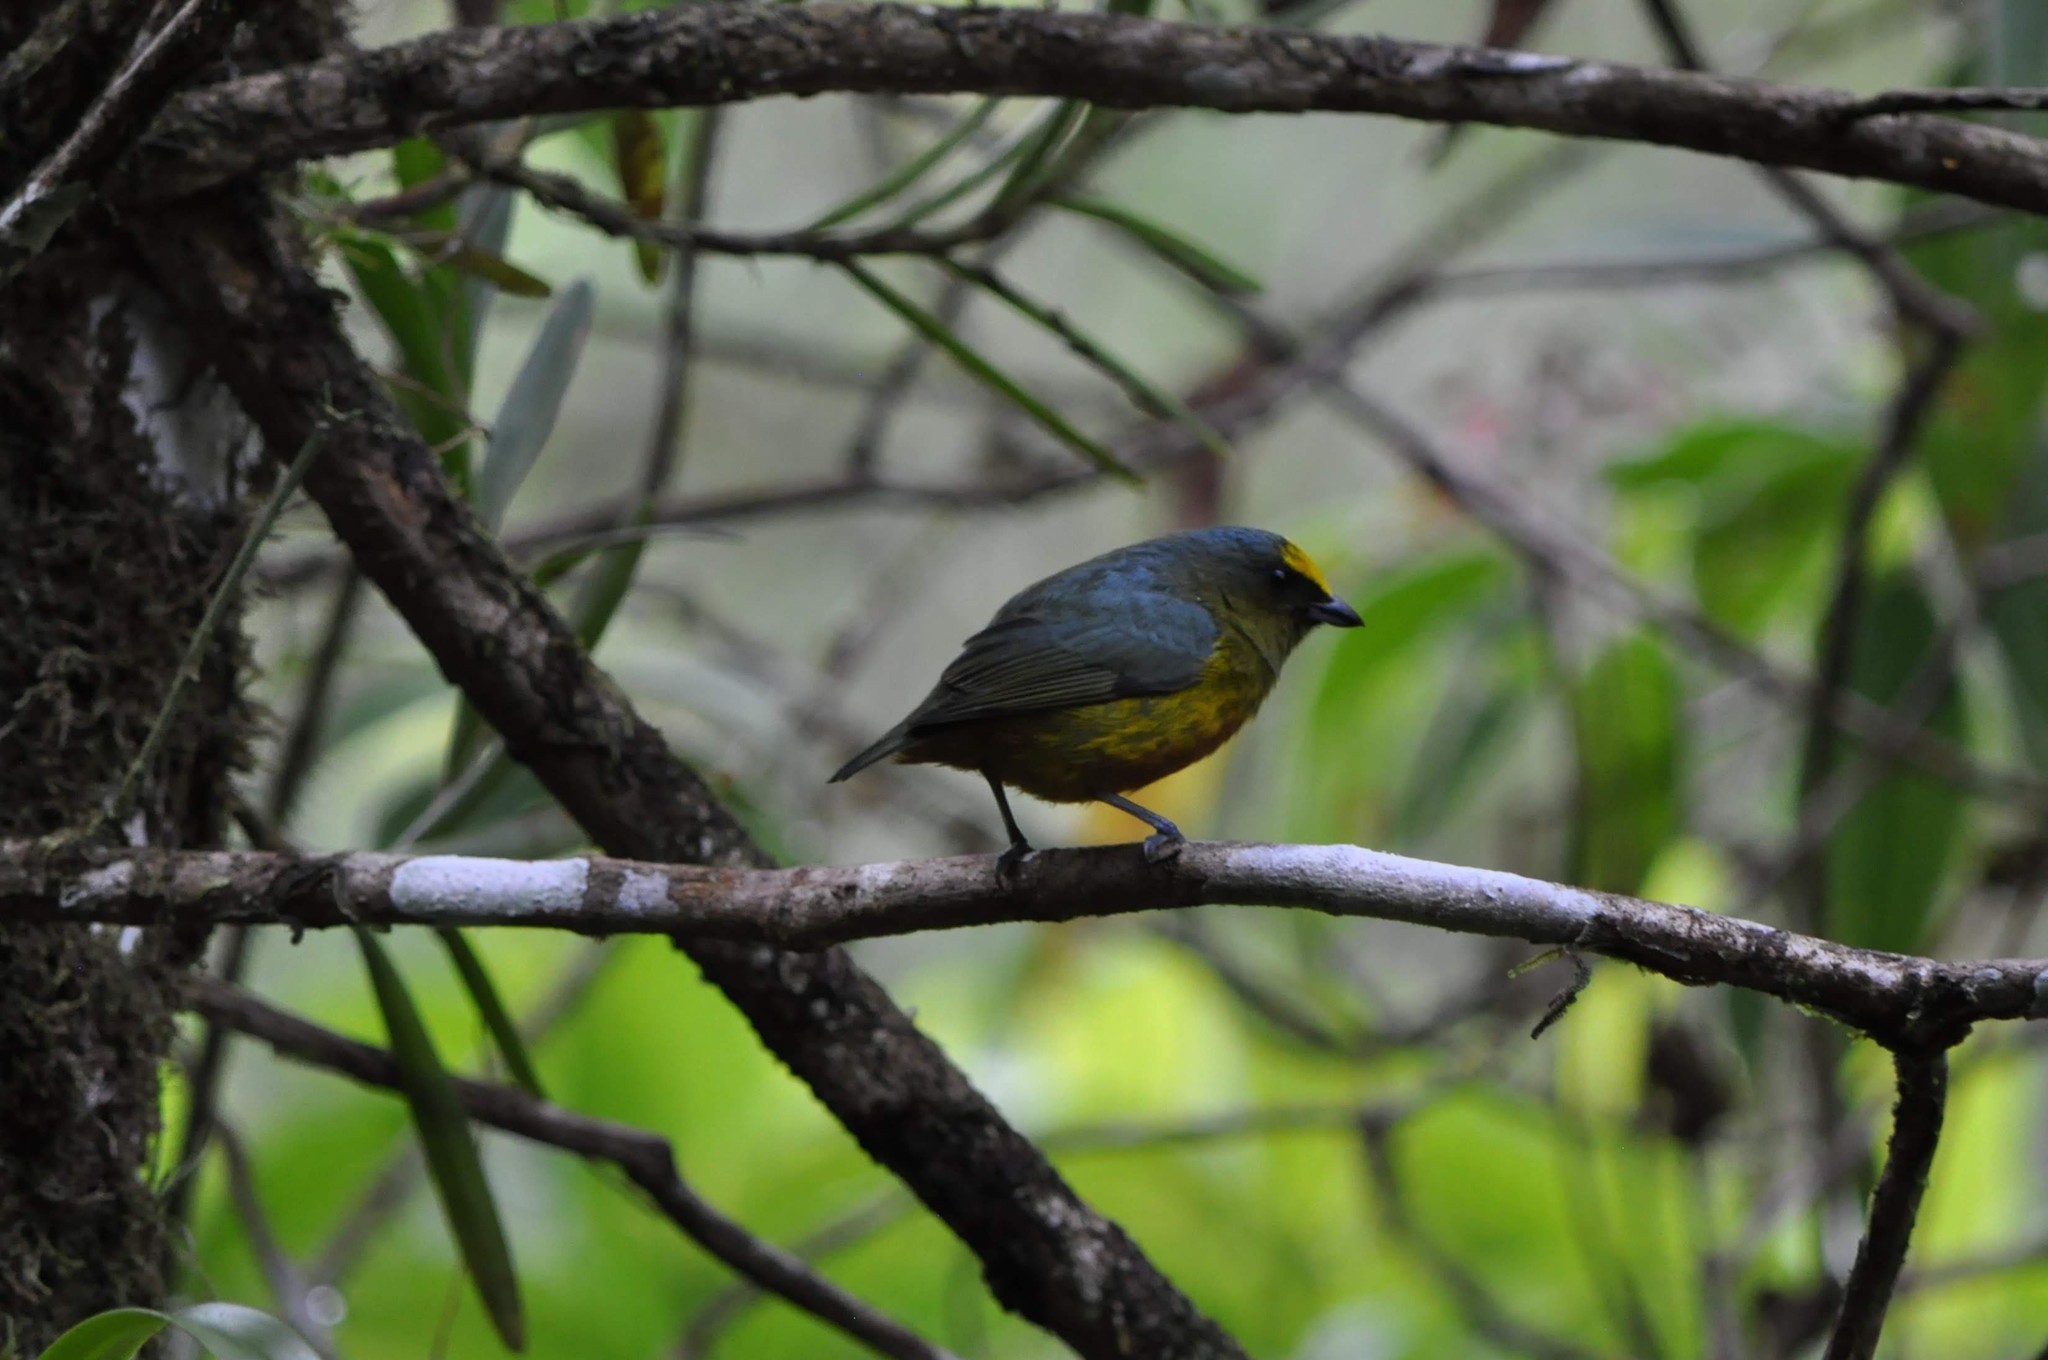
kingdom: Animalia
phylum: Chordata
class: Aves
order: Passeriformes
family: Fringillidae
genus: Euphonia
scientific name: Euphonia gouldi
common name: Olive-backed euphonia
